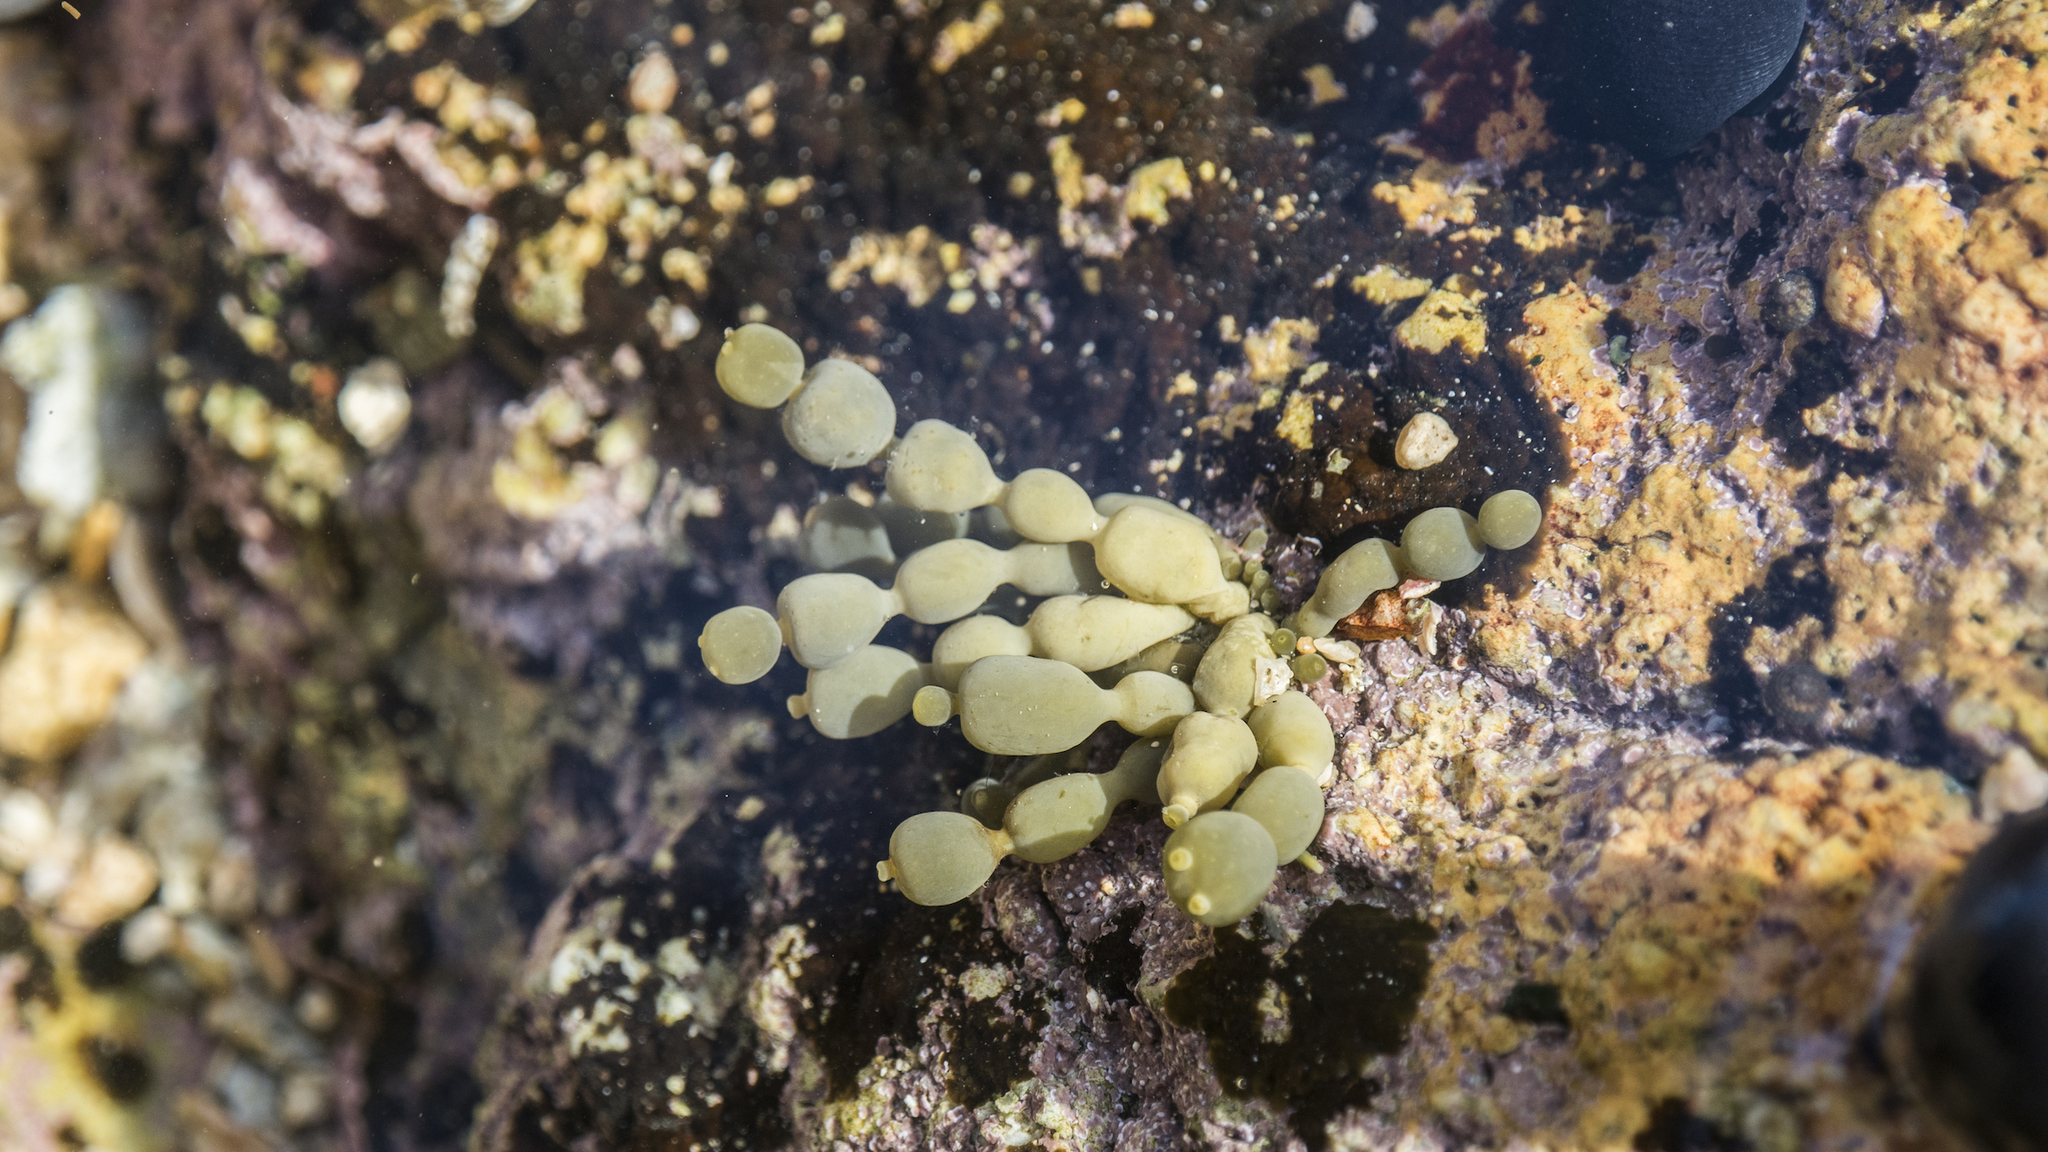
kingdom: Chromista
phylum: Ochrophyta
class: Phaeophyceae
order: Fucales
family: Hormosiraceae
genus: Hormosira
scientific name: Hormosira banksii
